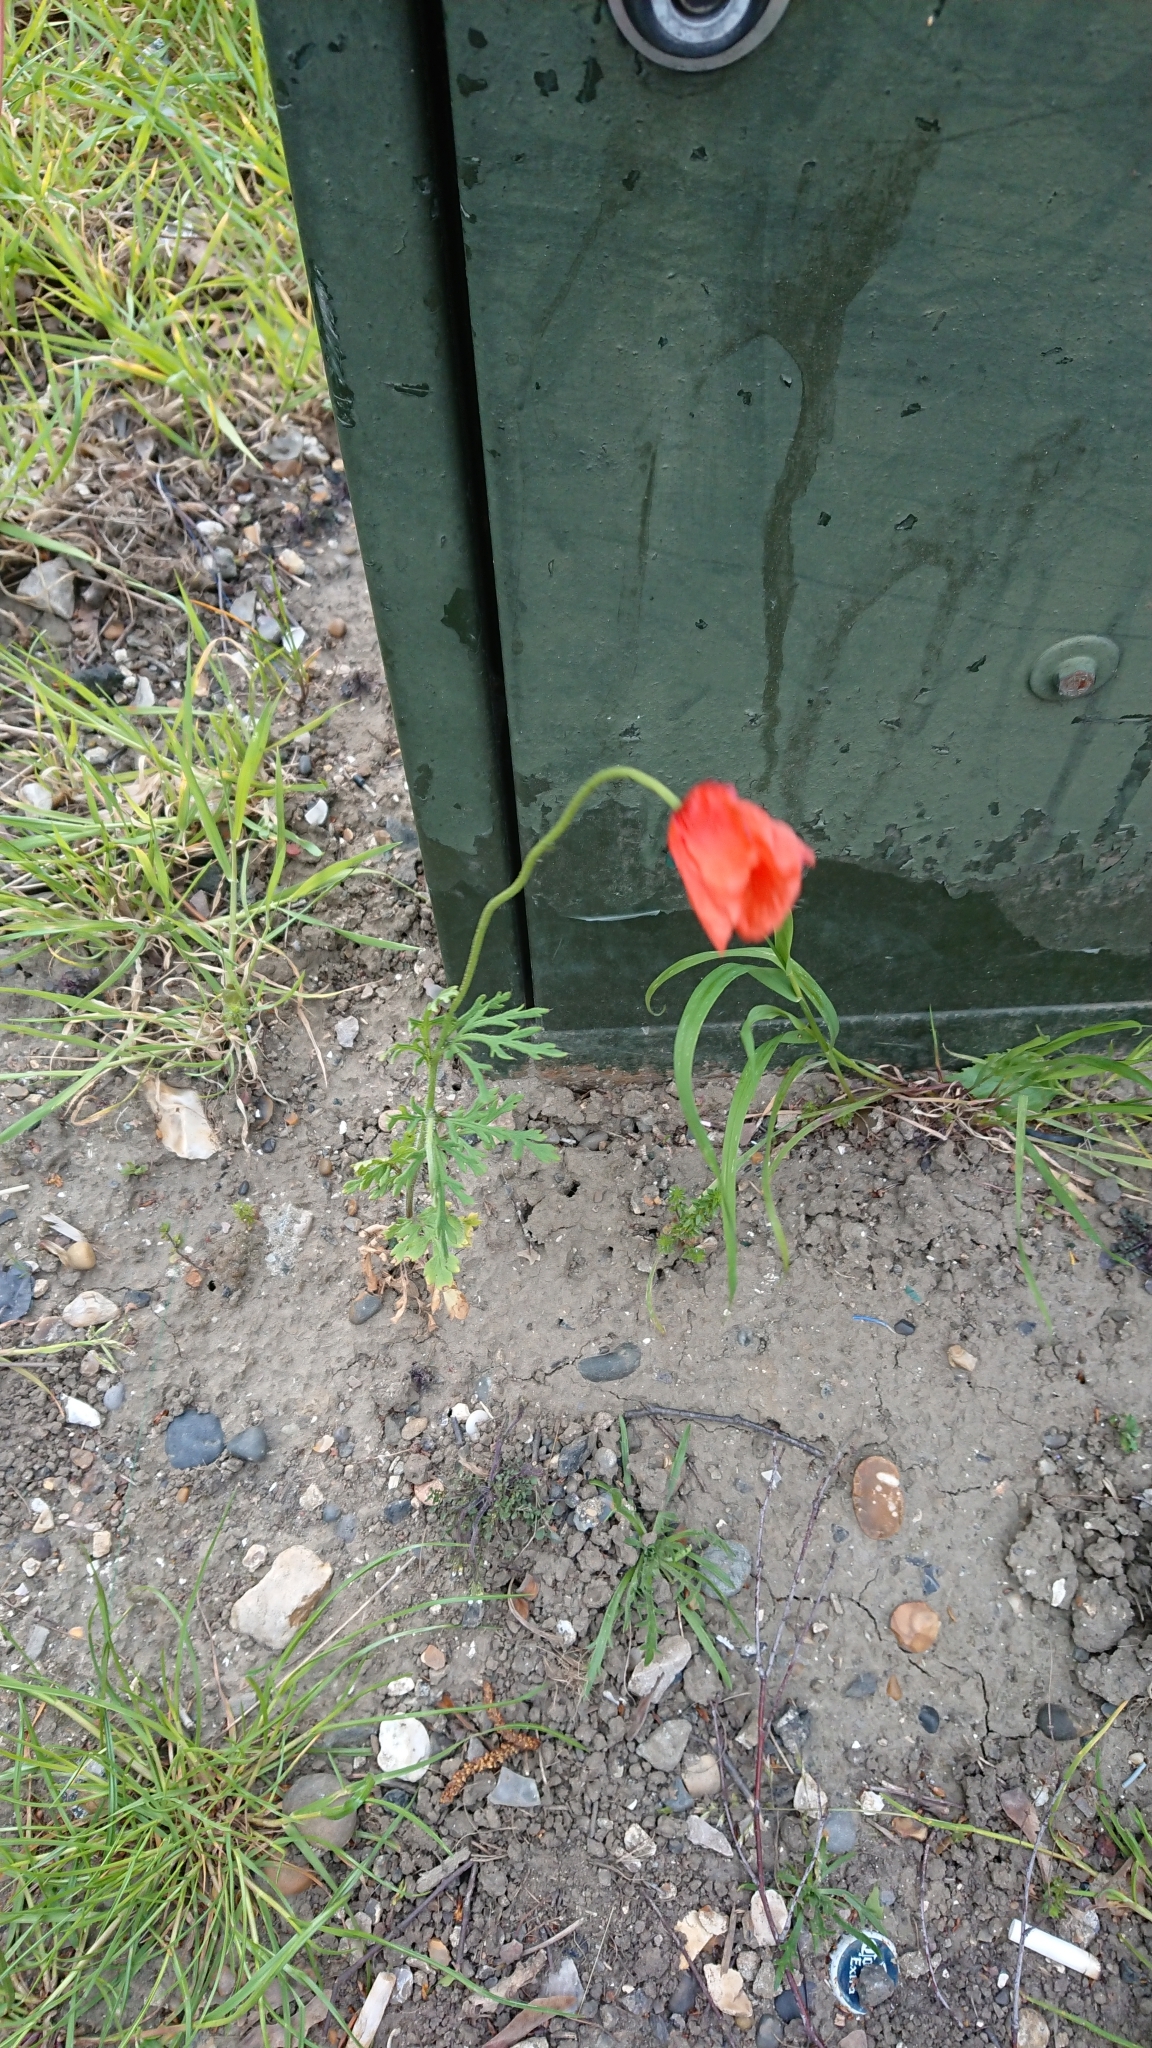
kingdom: Plantae
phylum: Tracheophyta
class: Magnoliopsida
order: Ranunculales
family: Papaveraceae
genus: Papaver
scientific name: Papaver rhoeas
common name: Corn poppy
